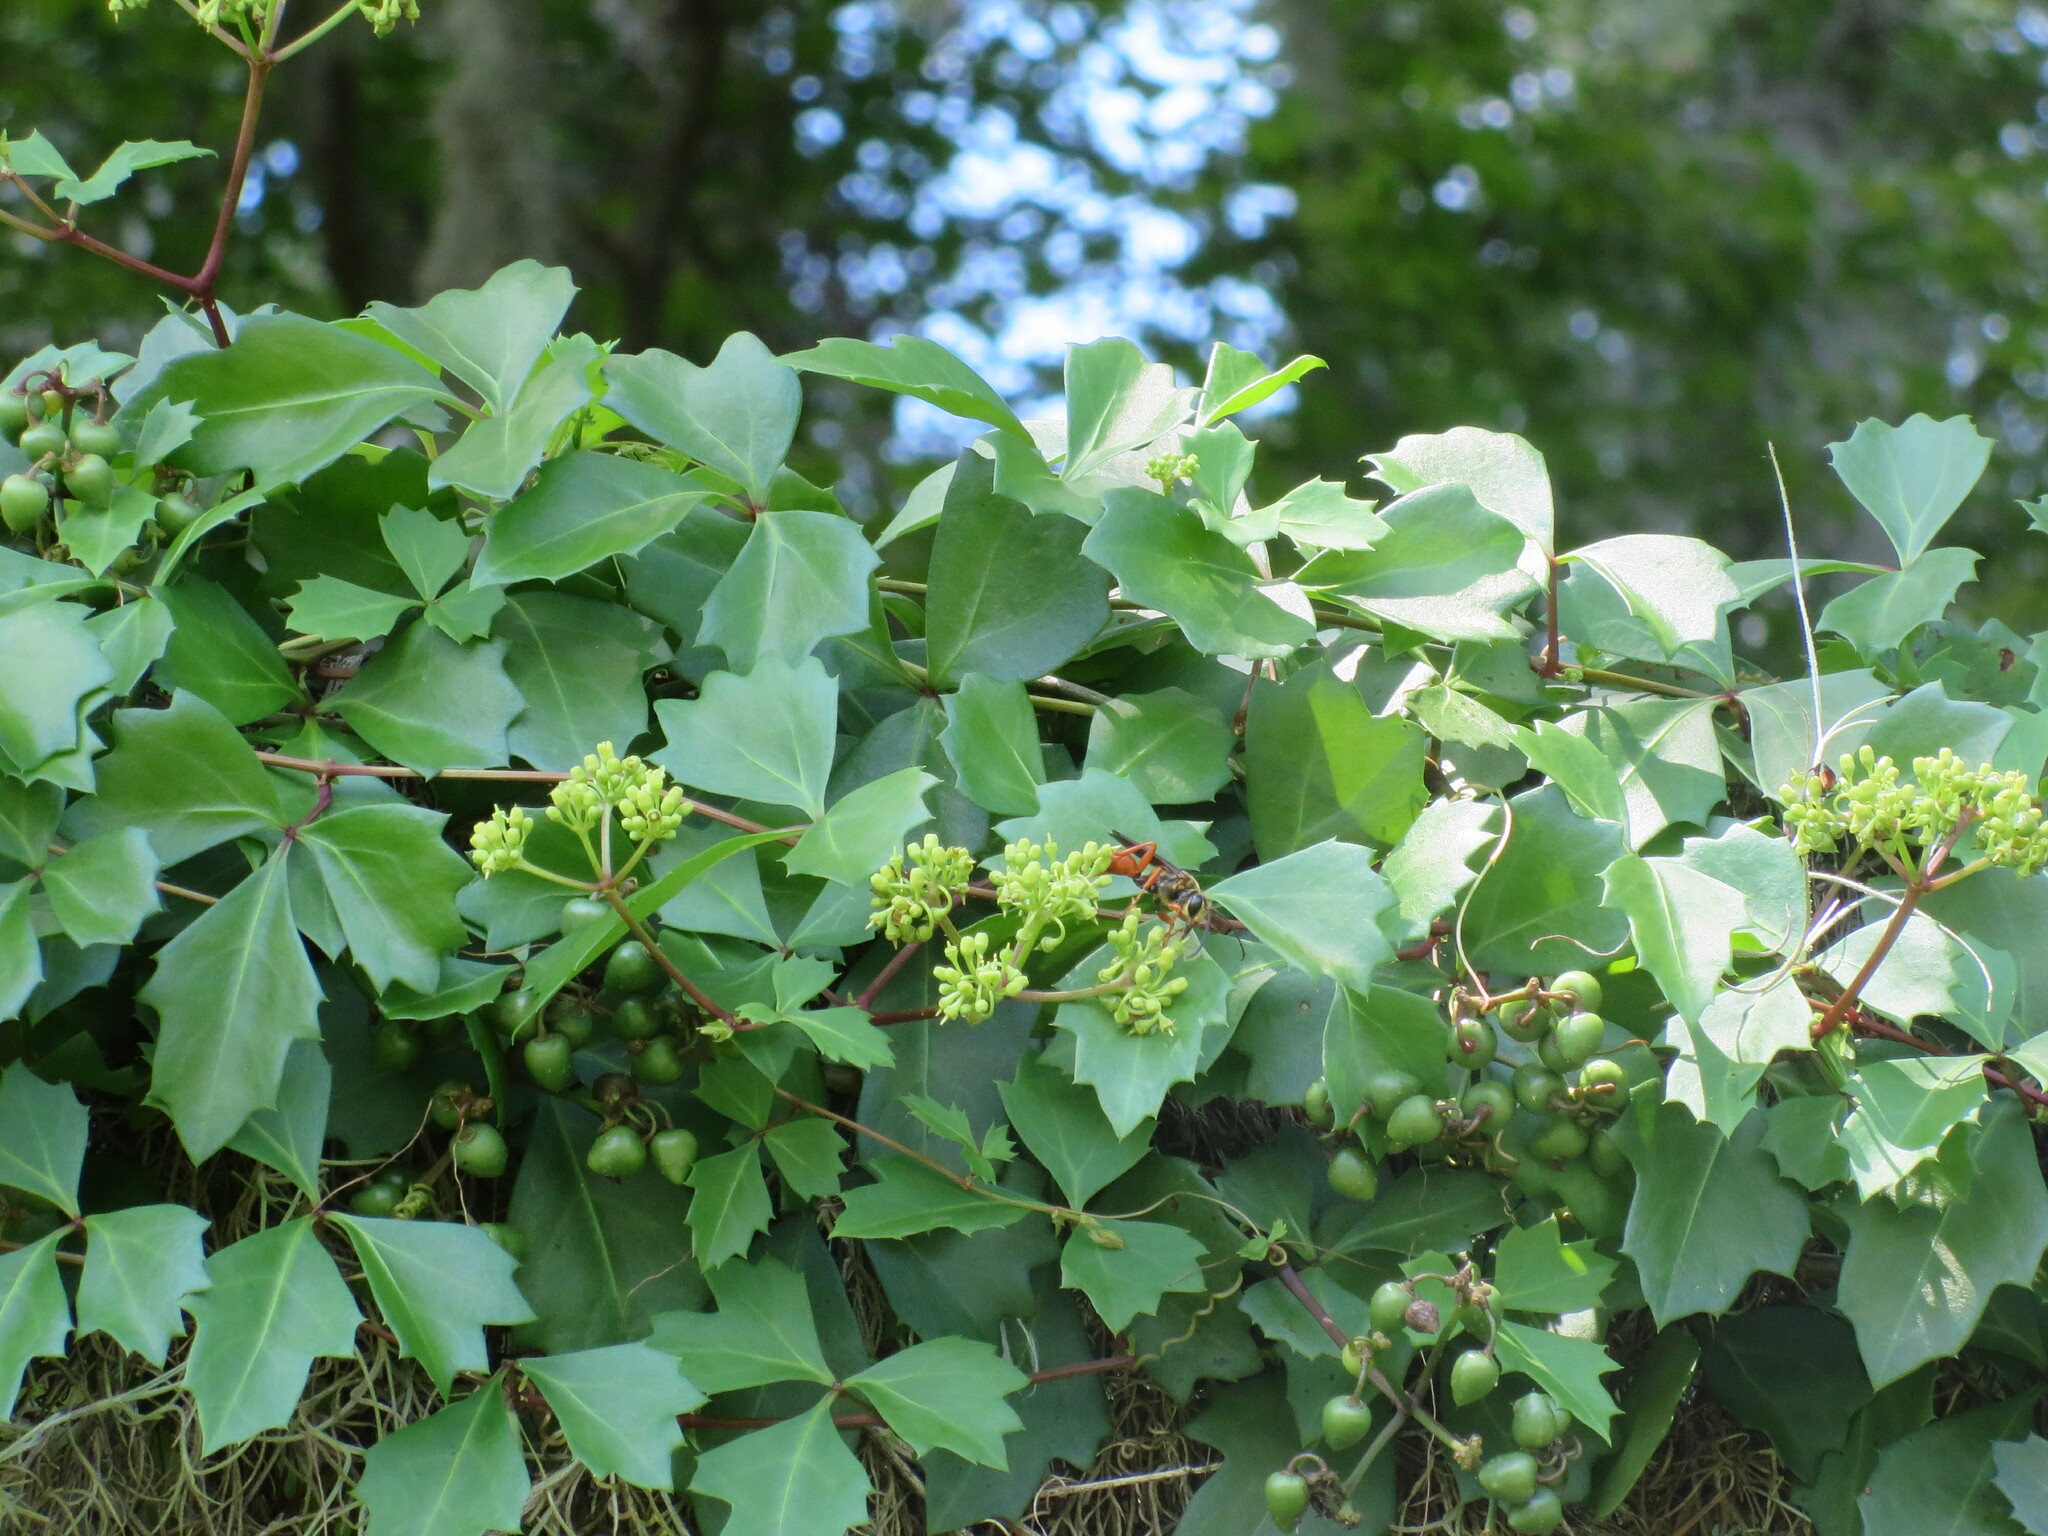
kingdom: Plantae
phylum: Tracheophyta
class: Magnoliopsida
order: Vitales
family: Vitaceae
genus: Cissus
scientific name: Cissus trifoliata
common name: Vine-sorrel
